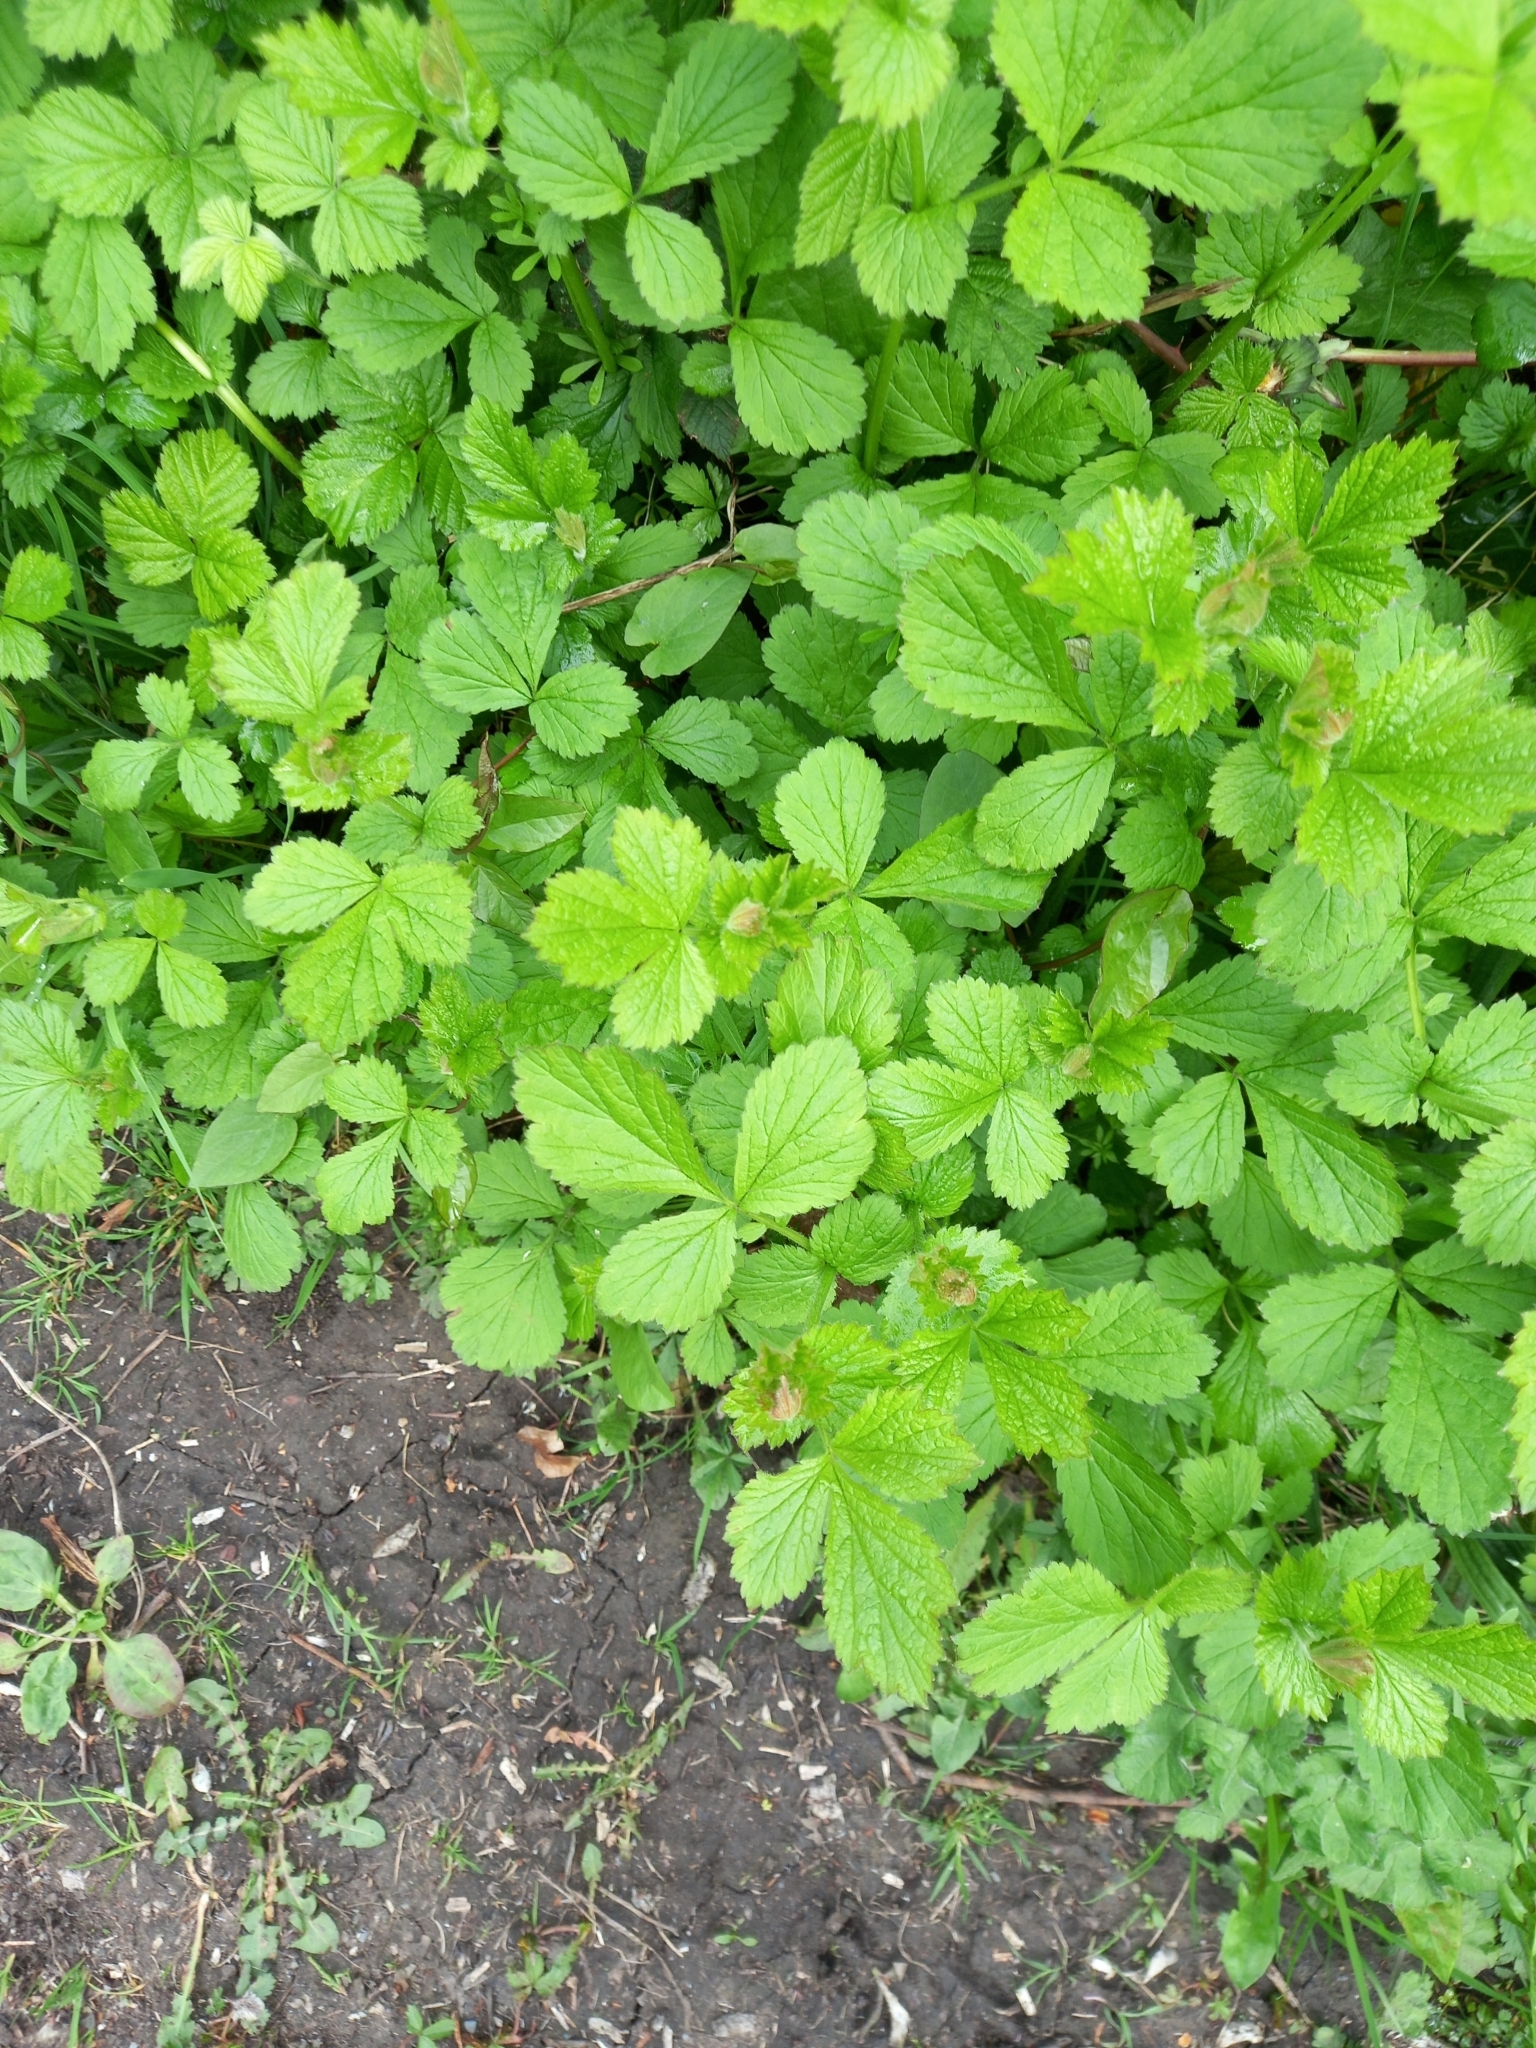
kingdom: Plantae
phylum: Tracheophyta
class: Magnoliopsida
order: Rosales
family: Rosaceae
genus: Geum
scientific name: Geum urbanum
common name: Wood avens
